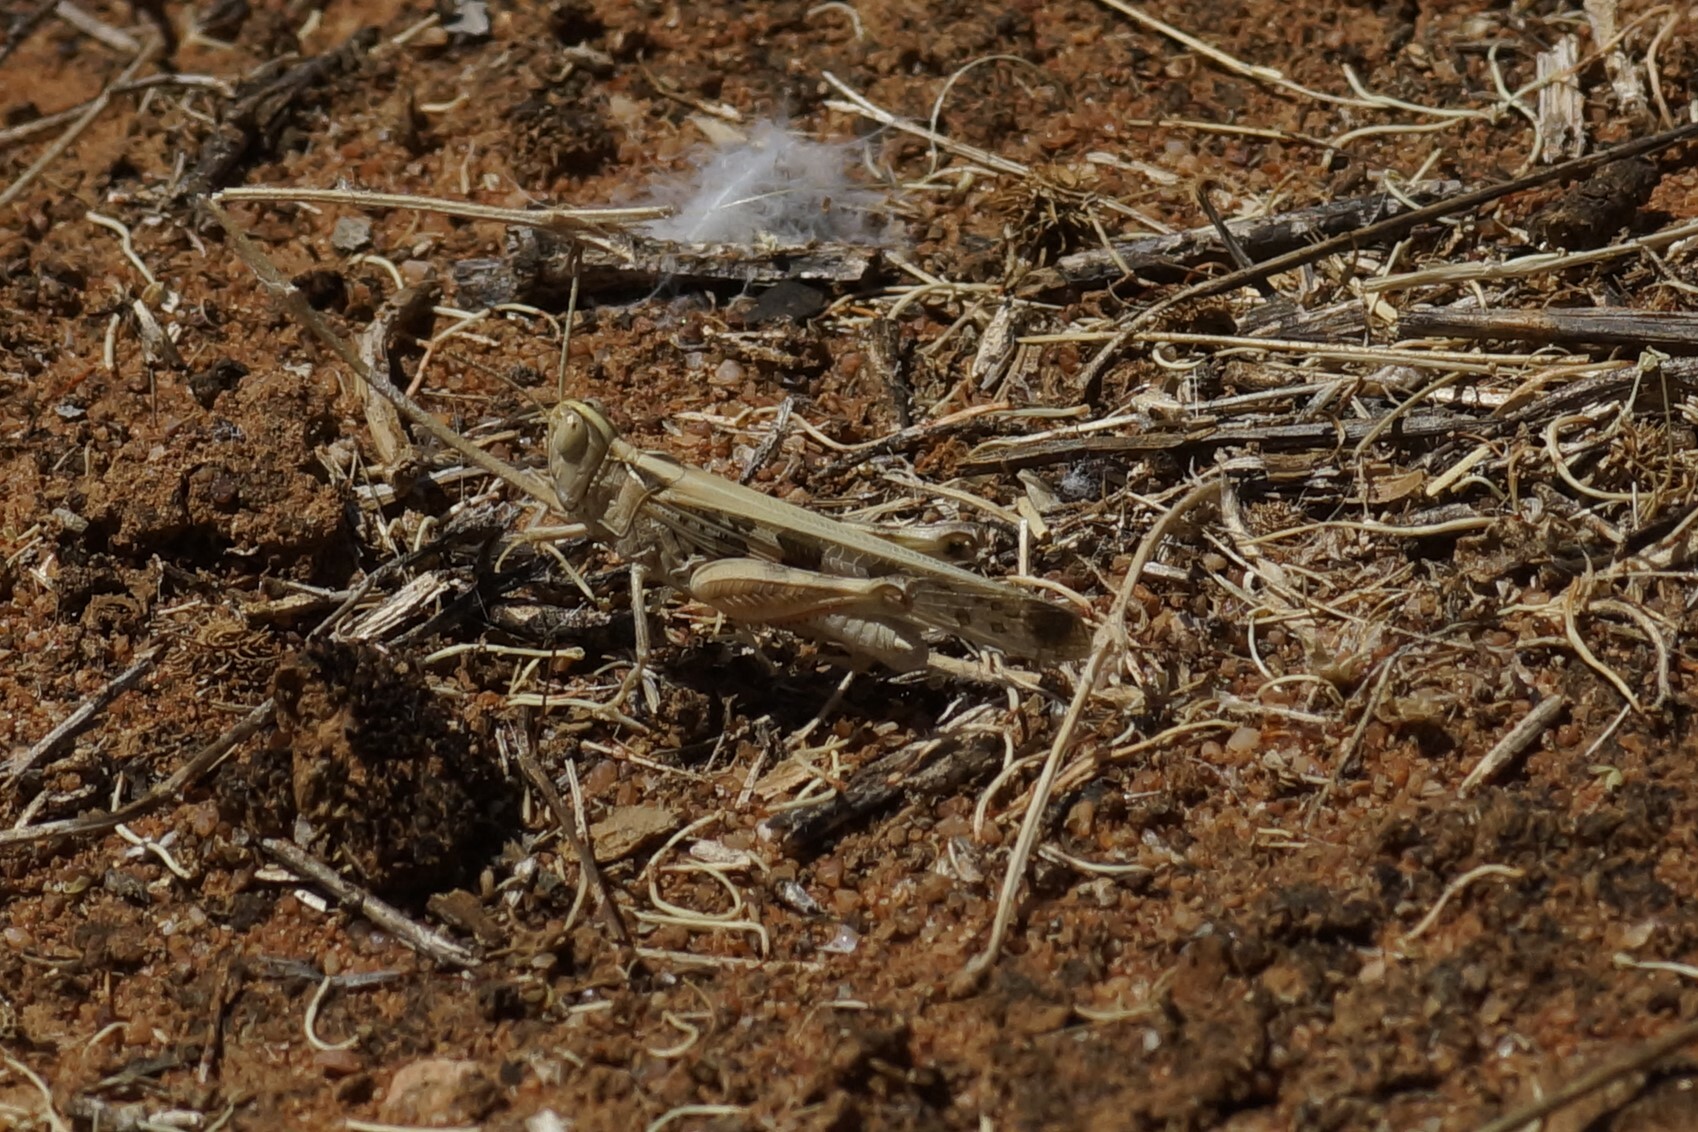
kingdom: Animalia
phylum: Arthropoda
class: Insecta
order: Orthoptera
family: Acrididae
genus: Chortoicetes
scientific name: Chortoicetes terminifera
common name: Australian plague locust
